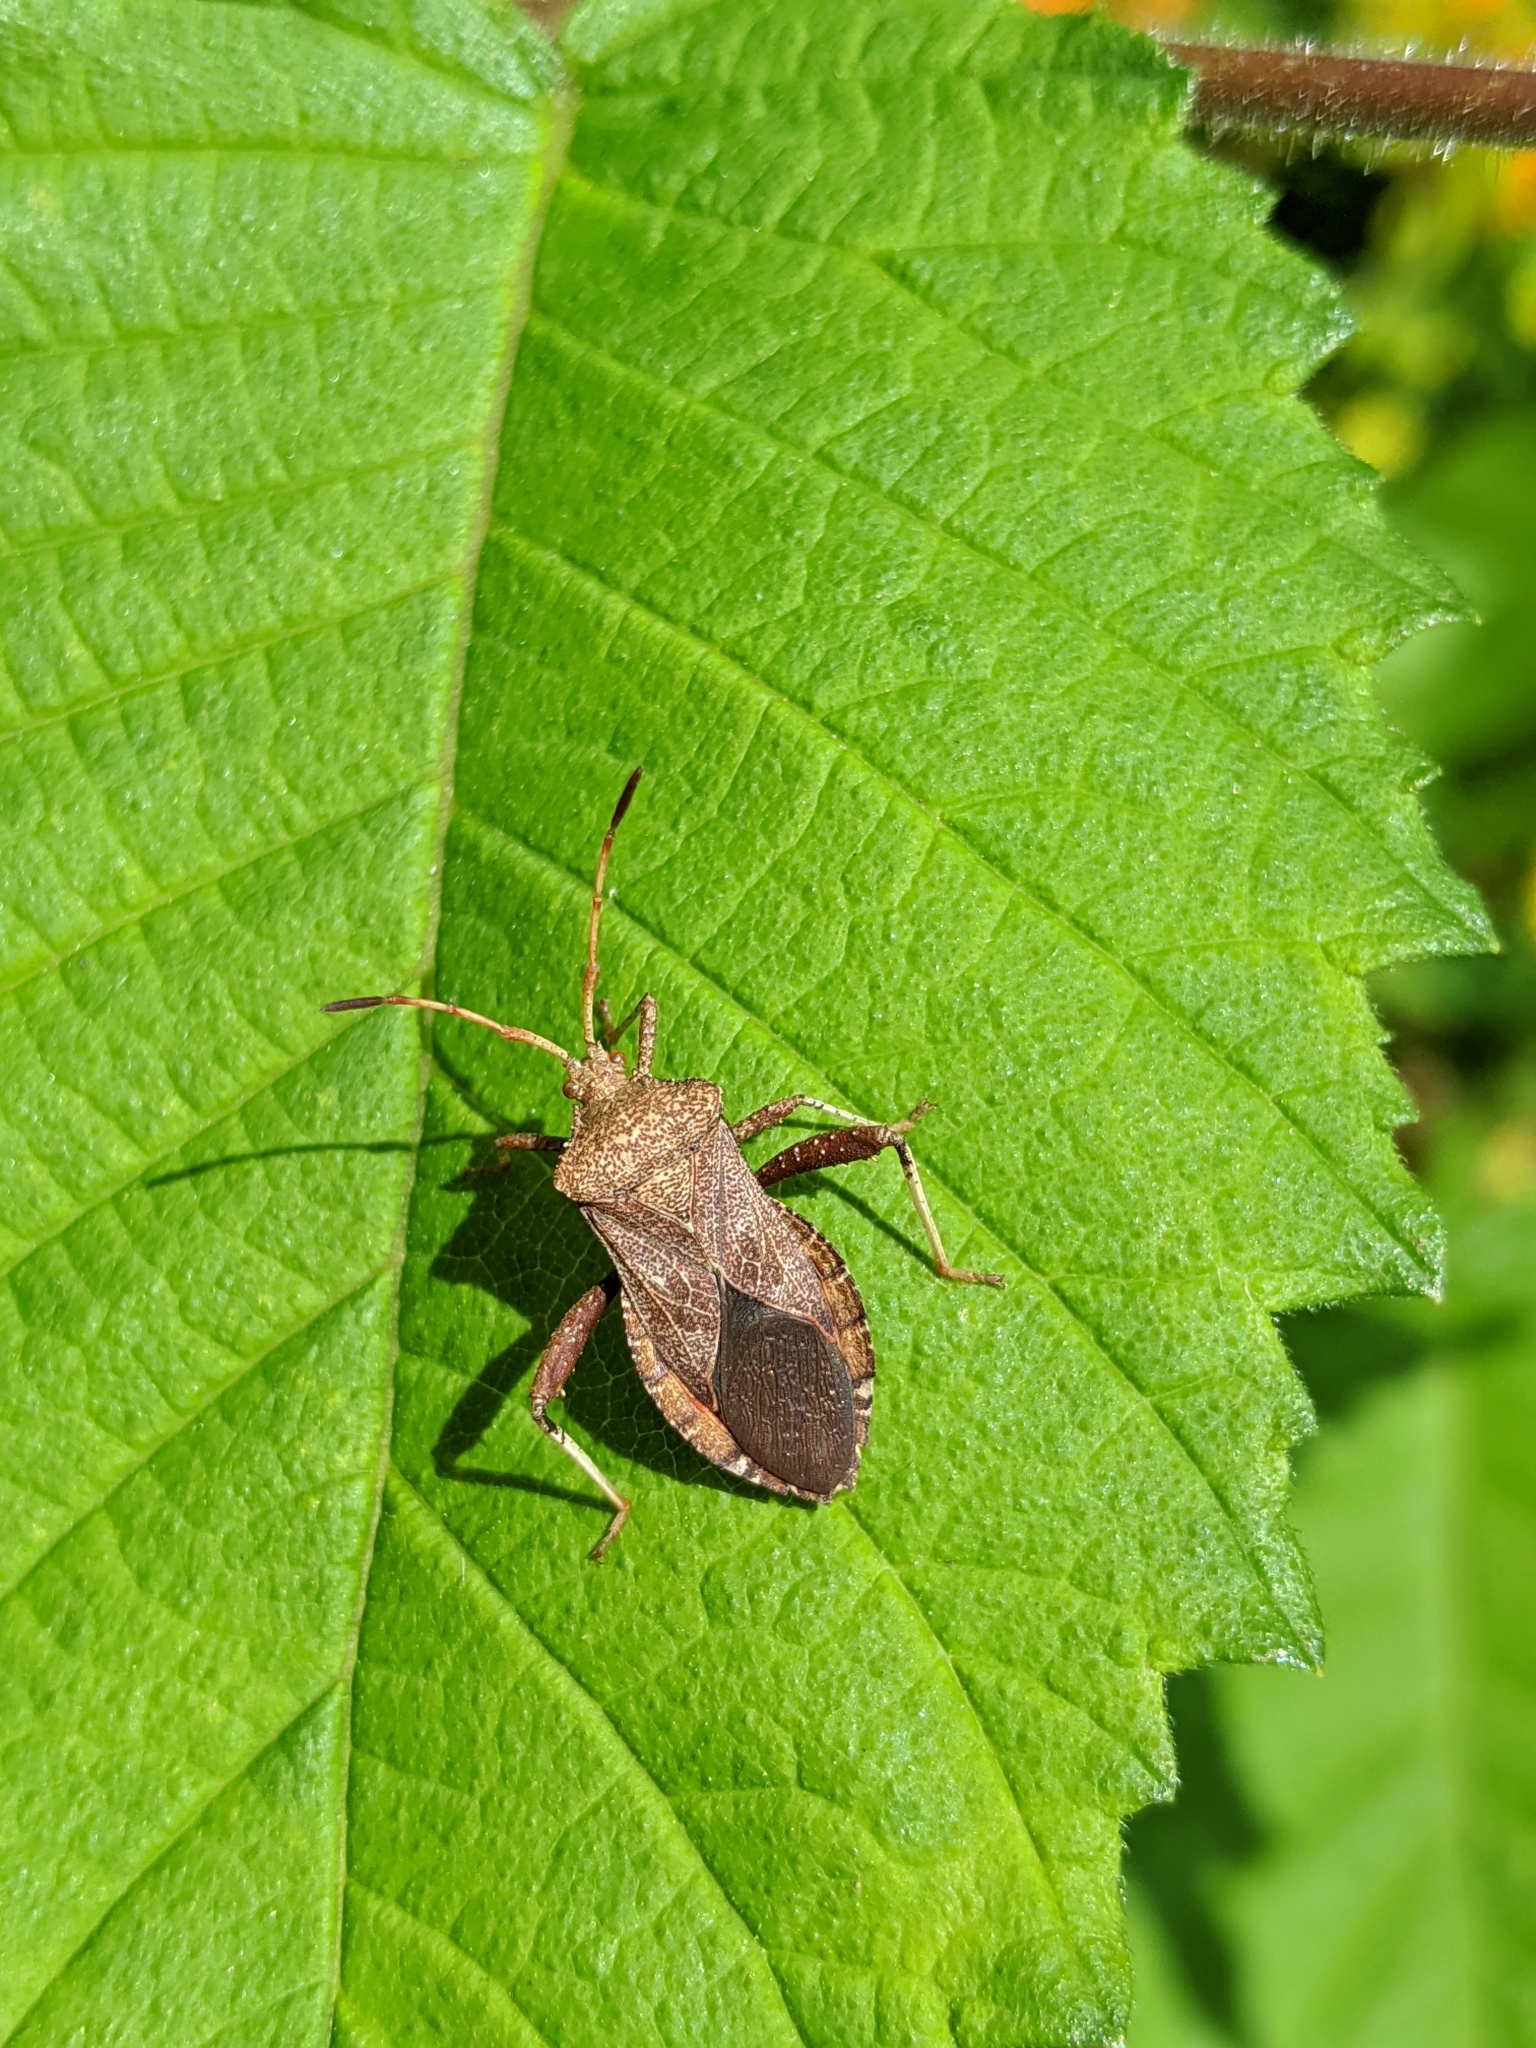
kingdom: Animalia
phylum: Arthropoda
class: Insecta
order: Hemiptera
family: Coreidae
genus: Euthochtha
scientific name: Euthochtha galeator
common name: Helmeted squash bug
